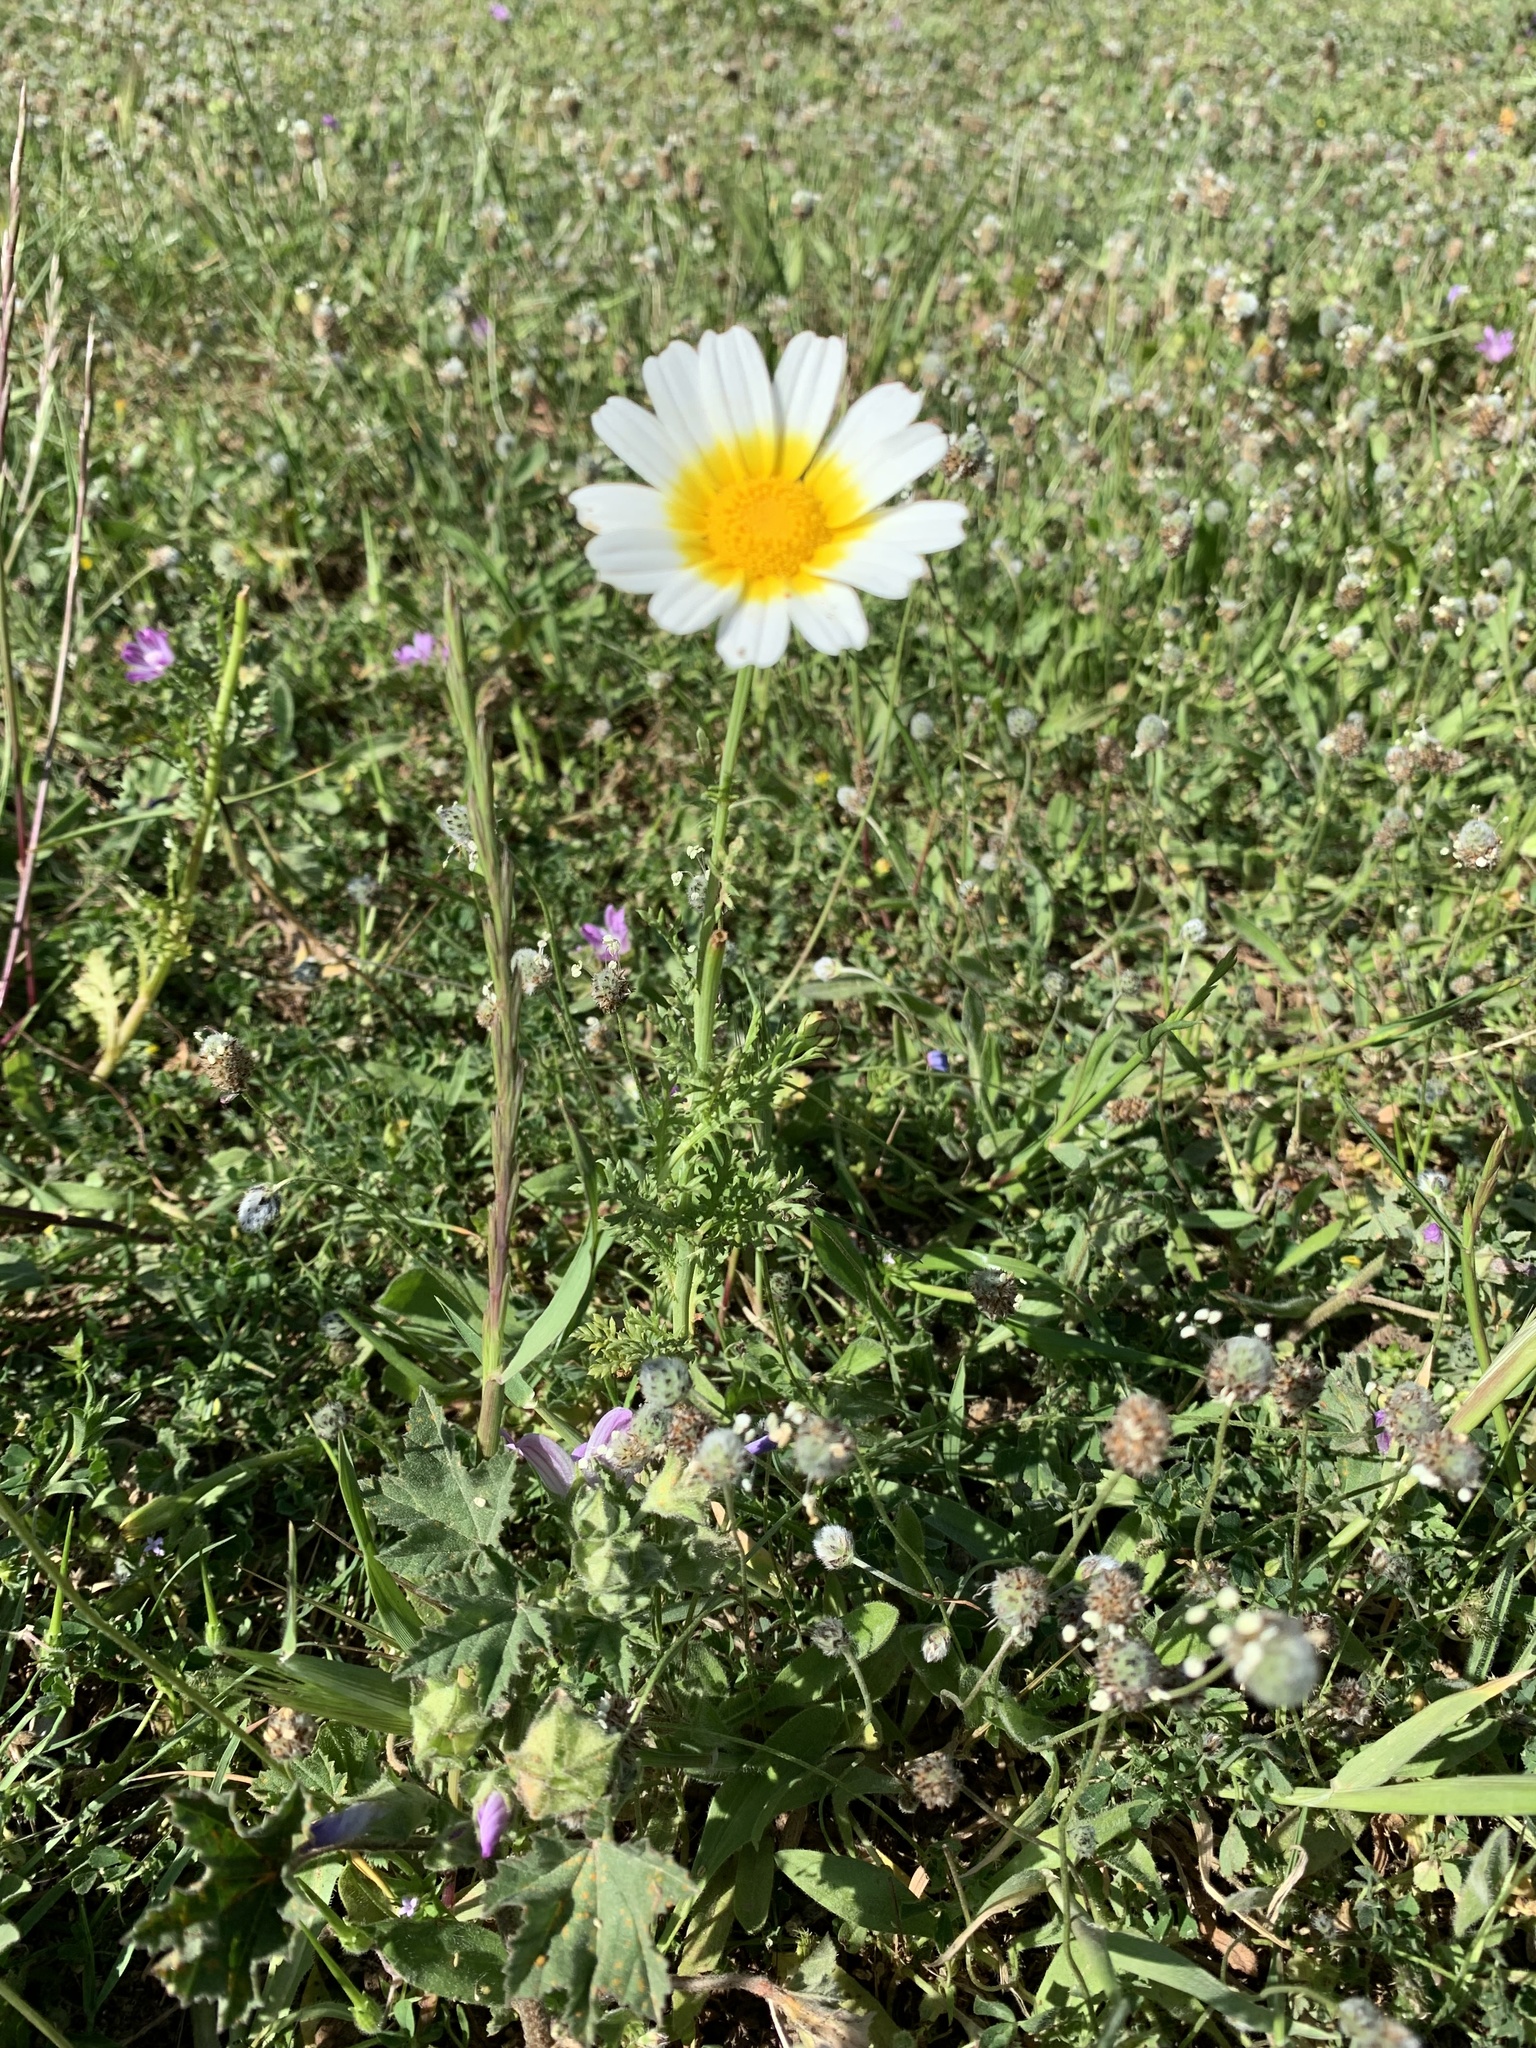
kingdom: Plantae
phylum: Tracheophyta
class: Magnoliopsida
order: Asterales
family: Asteraceae
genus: Glebionis
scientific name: Glebionis coronaria
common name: Crowndaisy
